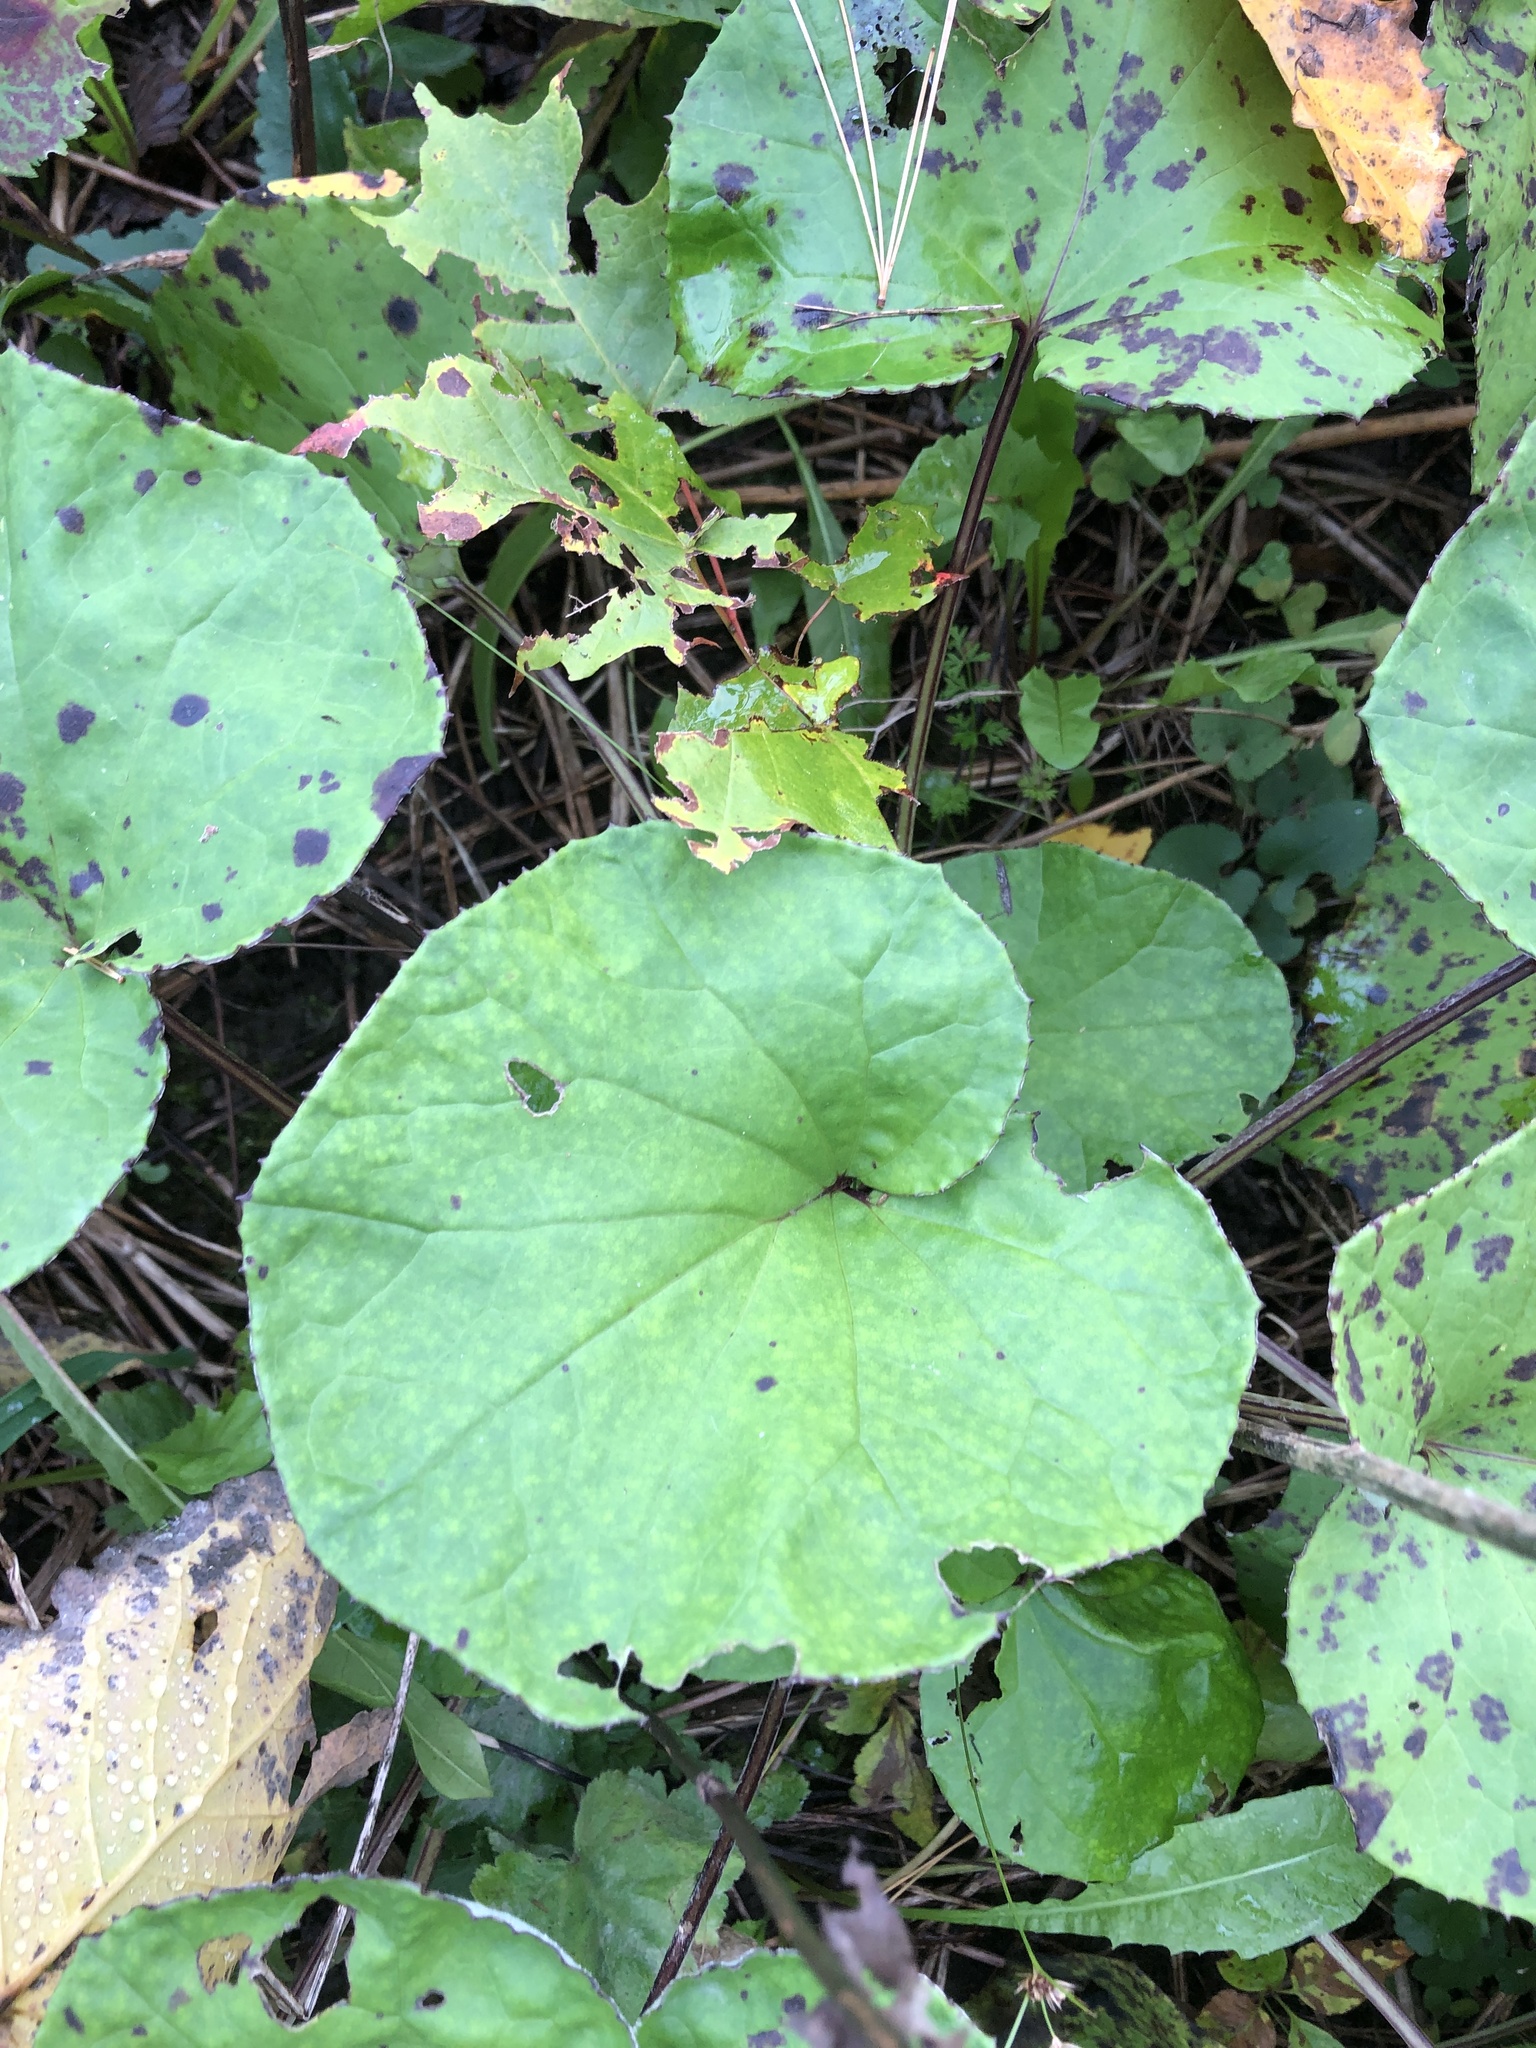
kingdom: Plantae
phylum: Tracheophyta
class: Magnoliopsida
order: Asterales
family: Asteraceae
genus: Tussilago
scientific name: Tussilago farfara
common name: Coltsfoot
